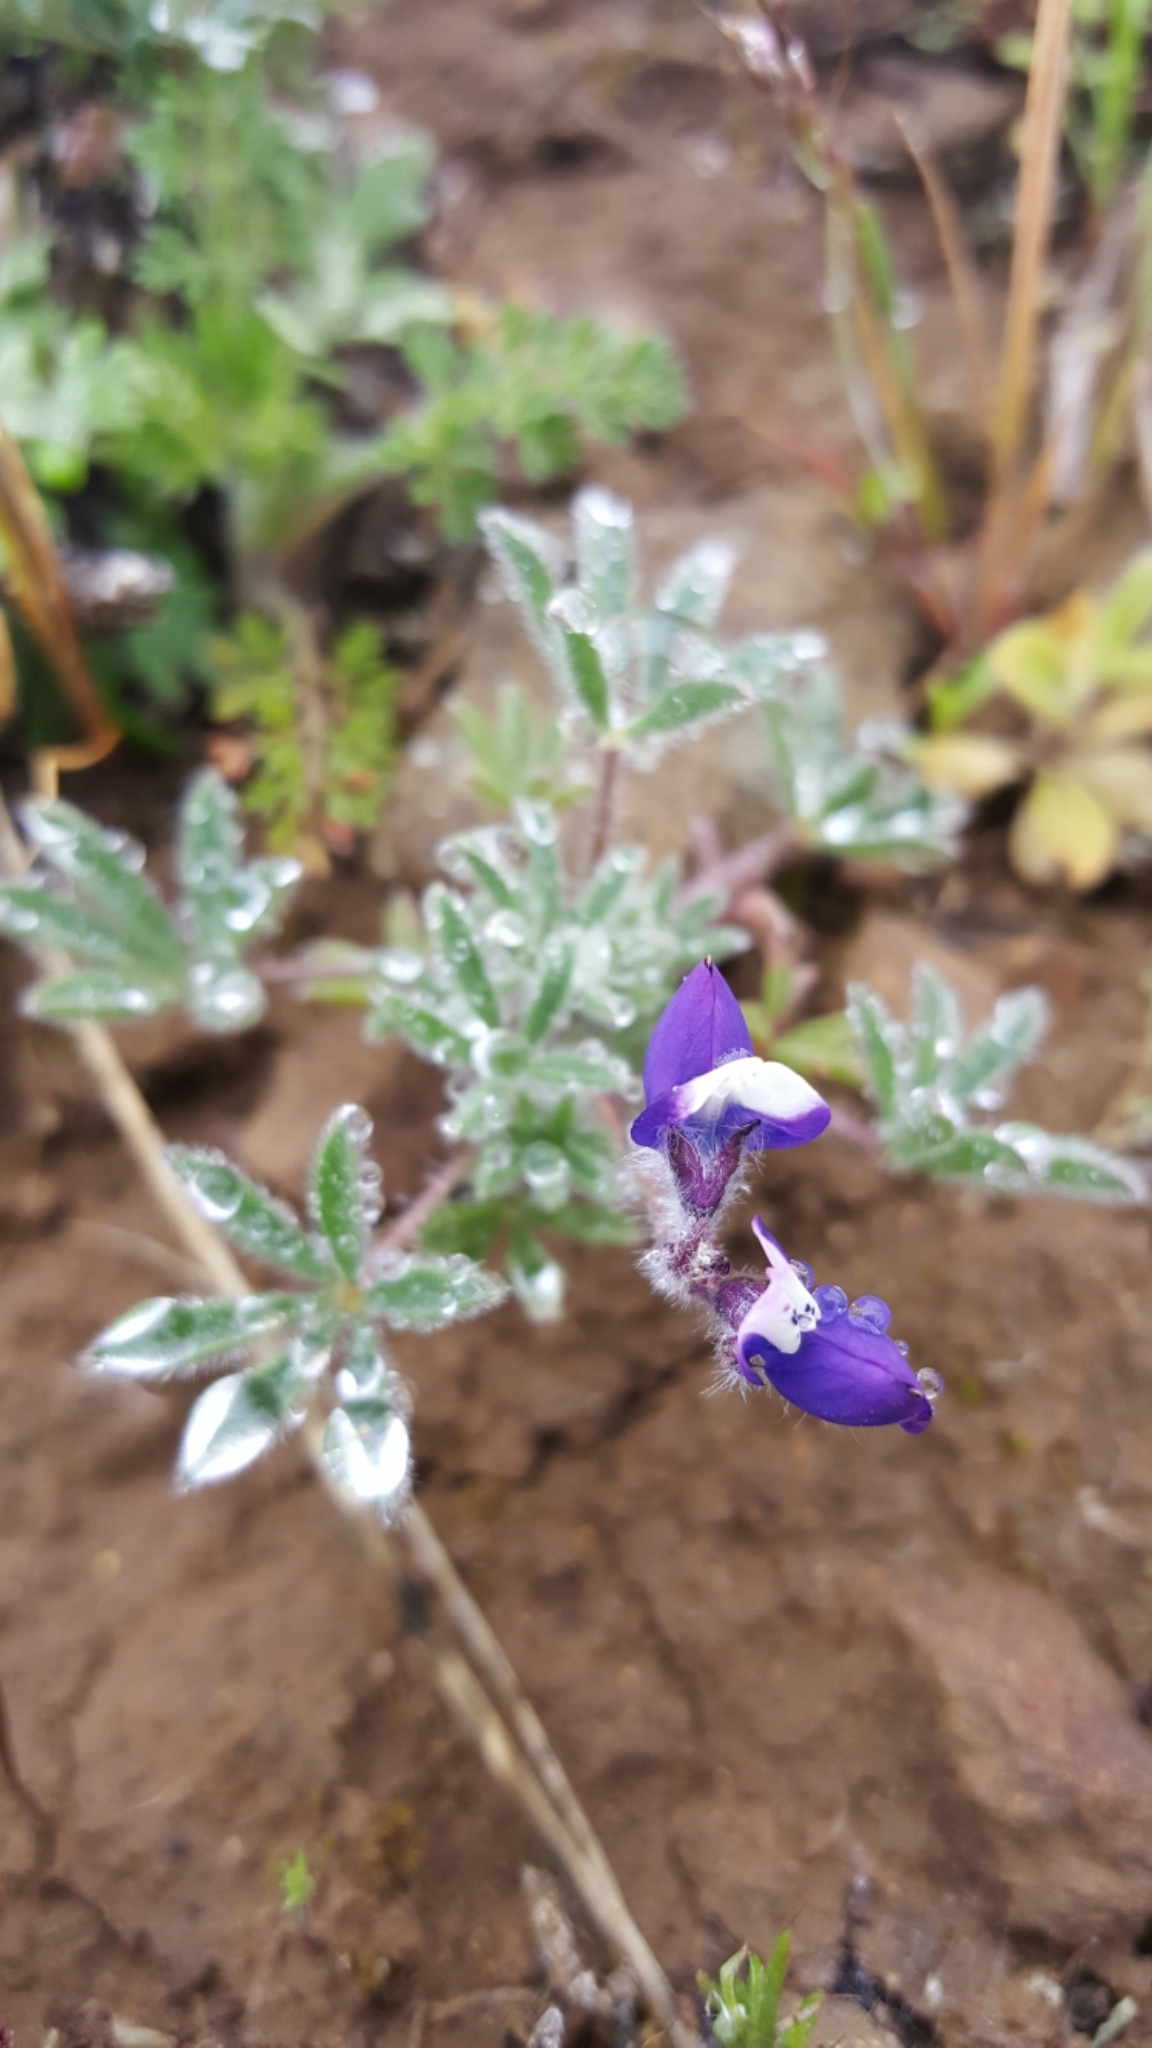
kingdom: Plantae
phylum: Tracheophyta
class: Magnoliopsida
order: Fabales
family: Fabaceae
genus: Lupinus
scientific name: Lupinus bicolor
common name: Miniature lupine
